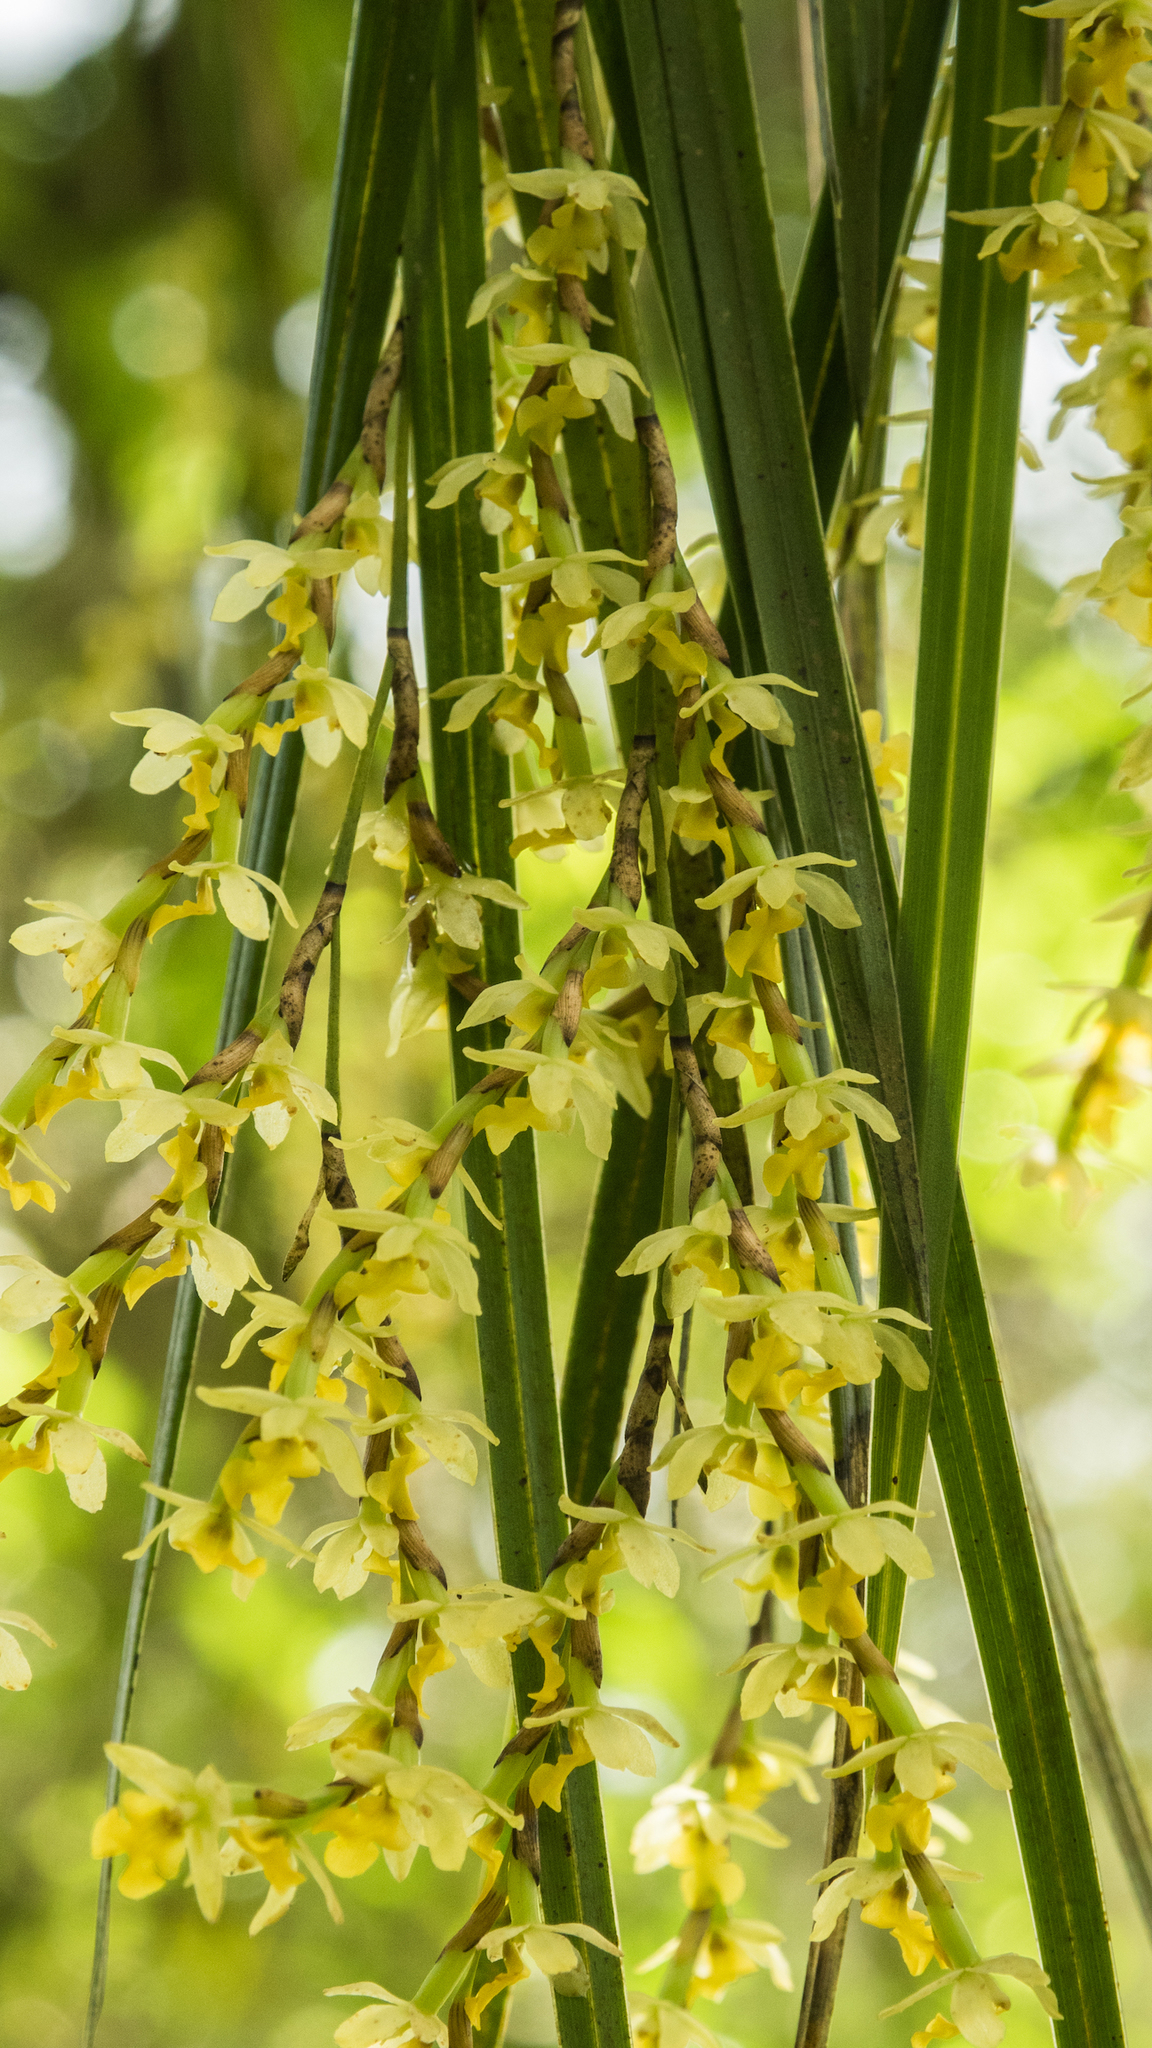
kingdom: Plantae
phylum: Tracheophyta
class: Liliopsida
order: Asparagales
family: Orchidaceae
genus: Earina
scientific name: Earina mucronata
